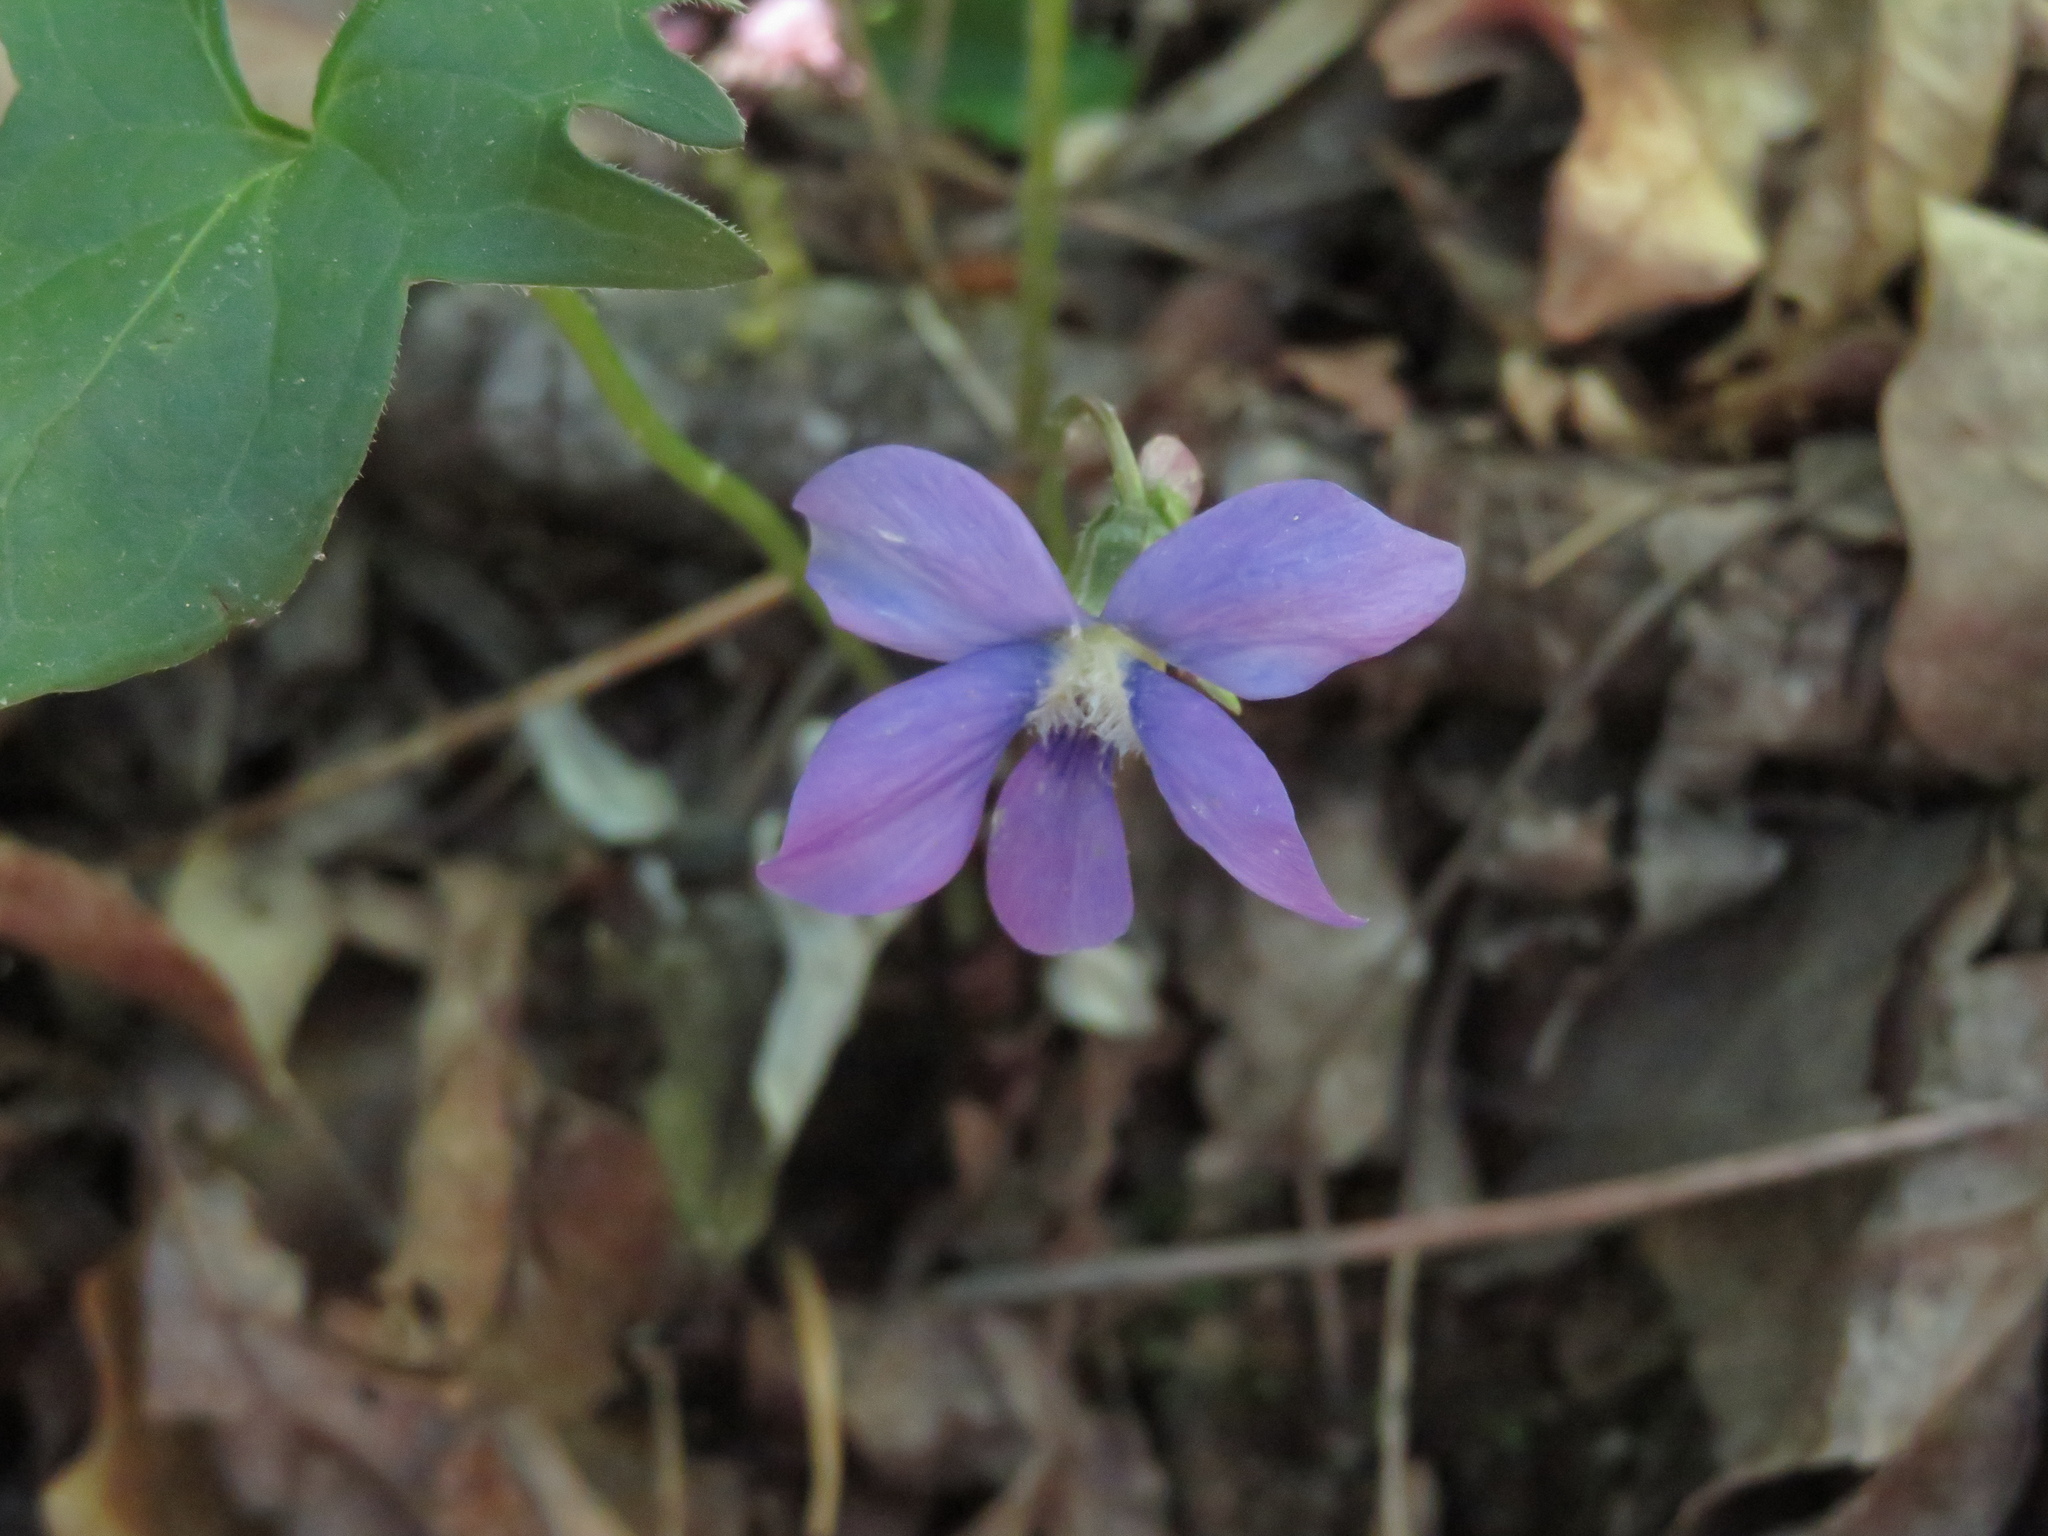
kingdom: Plantae
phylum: Tracheophyta
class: Magnoliopsida
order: Malpighiales
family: Violaceae
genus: Viola
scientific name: Viola palmata
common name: Early blue violet
